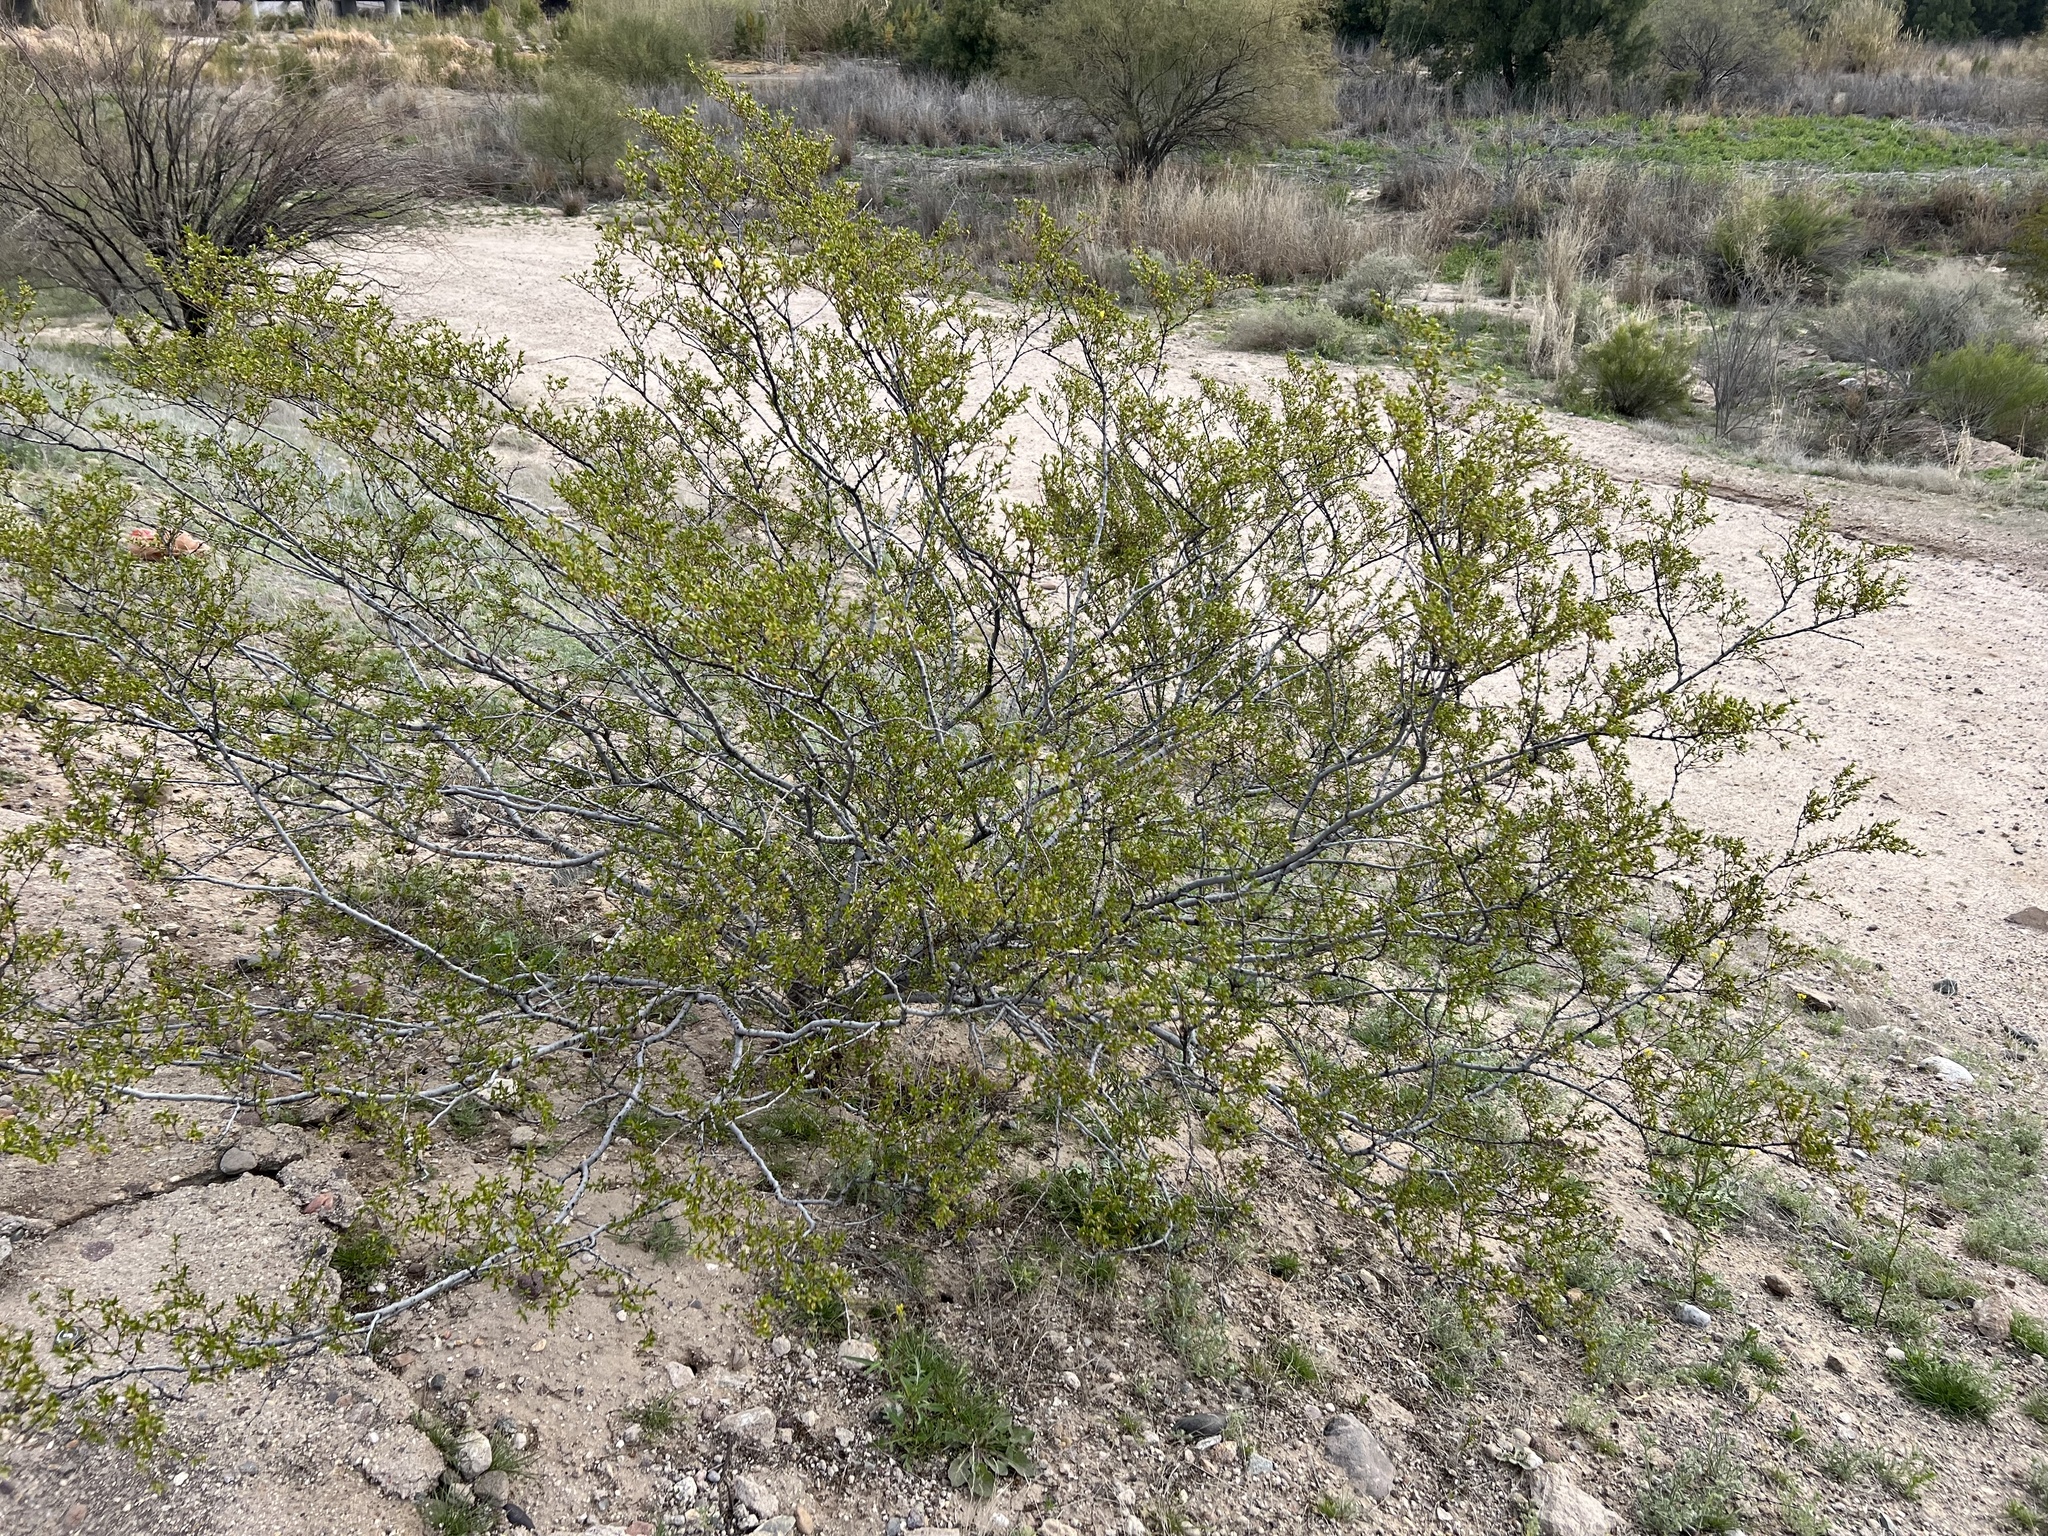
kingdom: Plantae
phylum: Tracheophyta
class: Magnoliopsida
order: Zygophyllales
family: Zygophyllaceae
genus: Larrea
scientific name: Larrea tridentata
